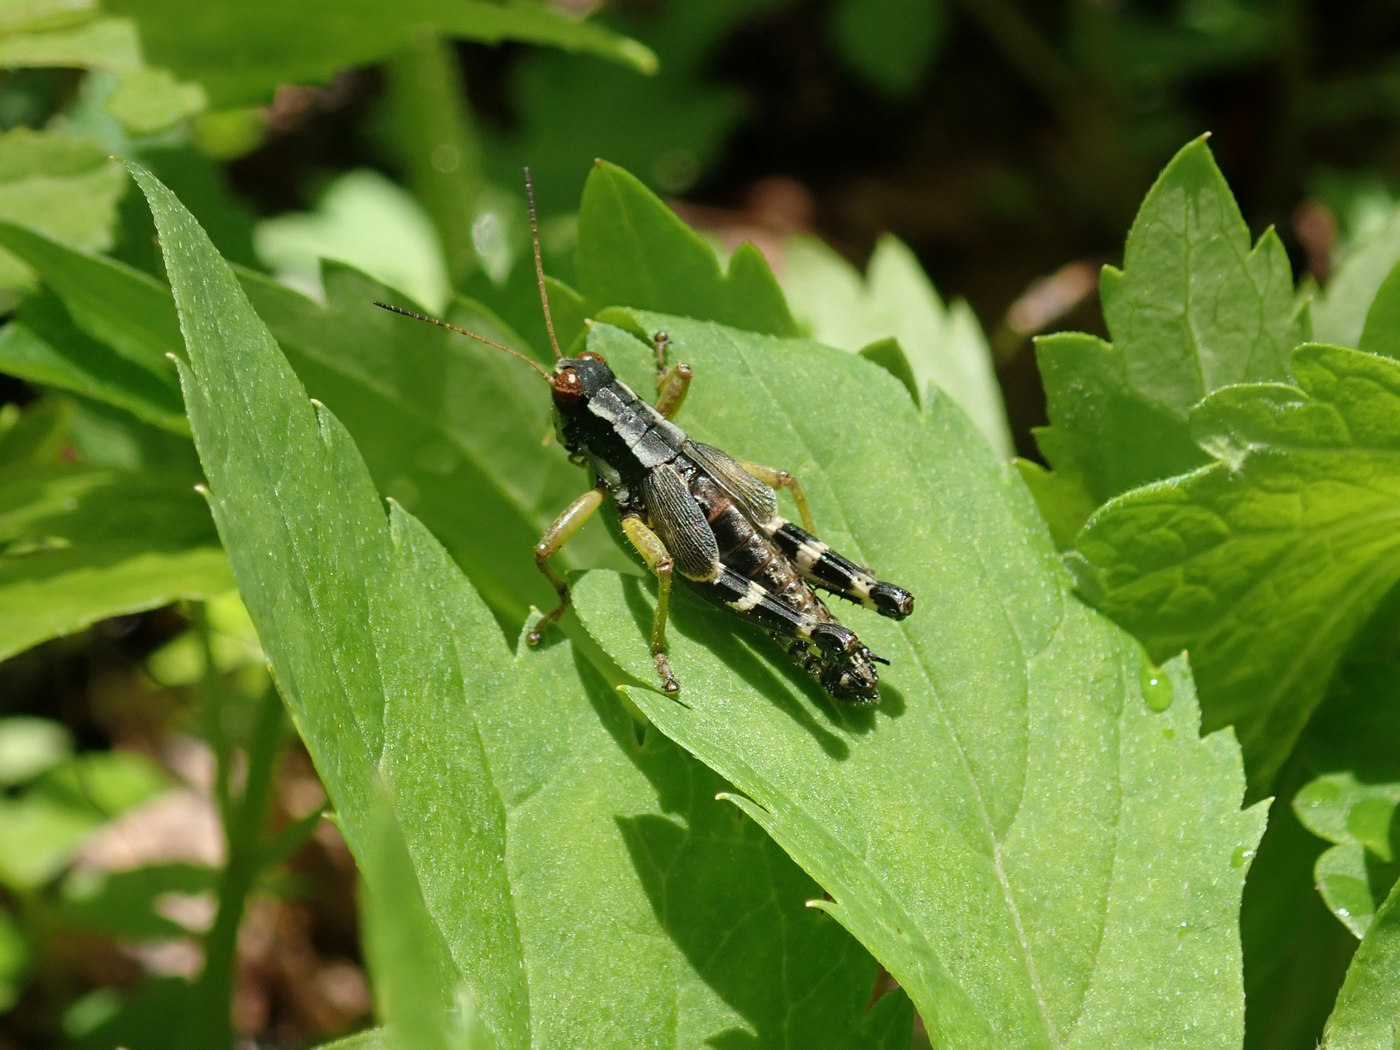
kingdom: Animalia
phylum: Arthropoda
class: Insecta
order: Orthoptera
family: Acrididae
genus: Melanoplus
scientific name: Melanoplus viridipes
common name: Green-legged locust
